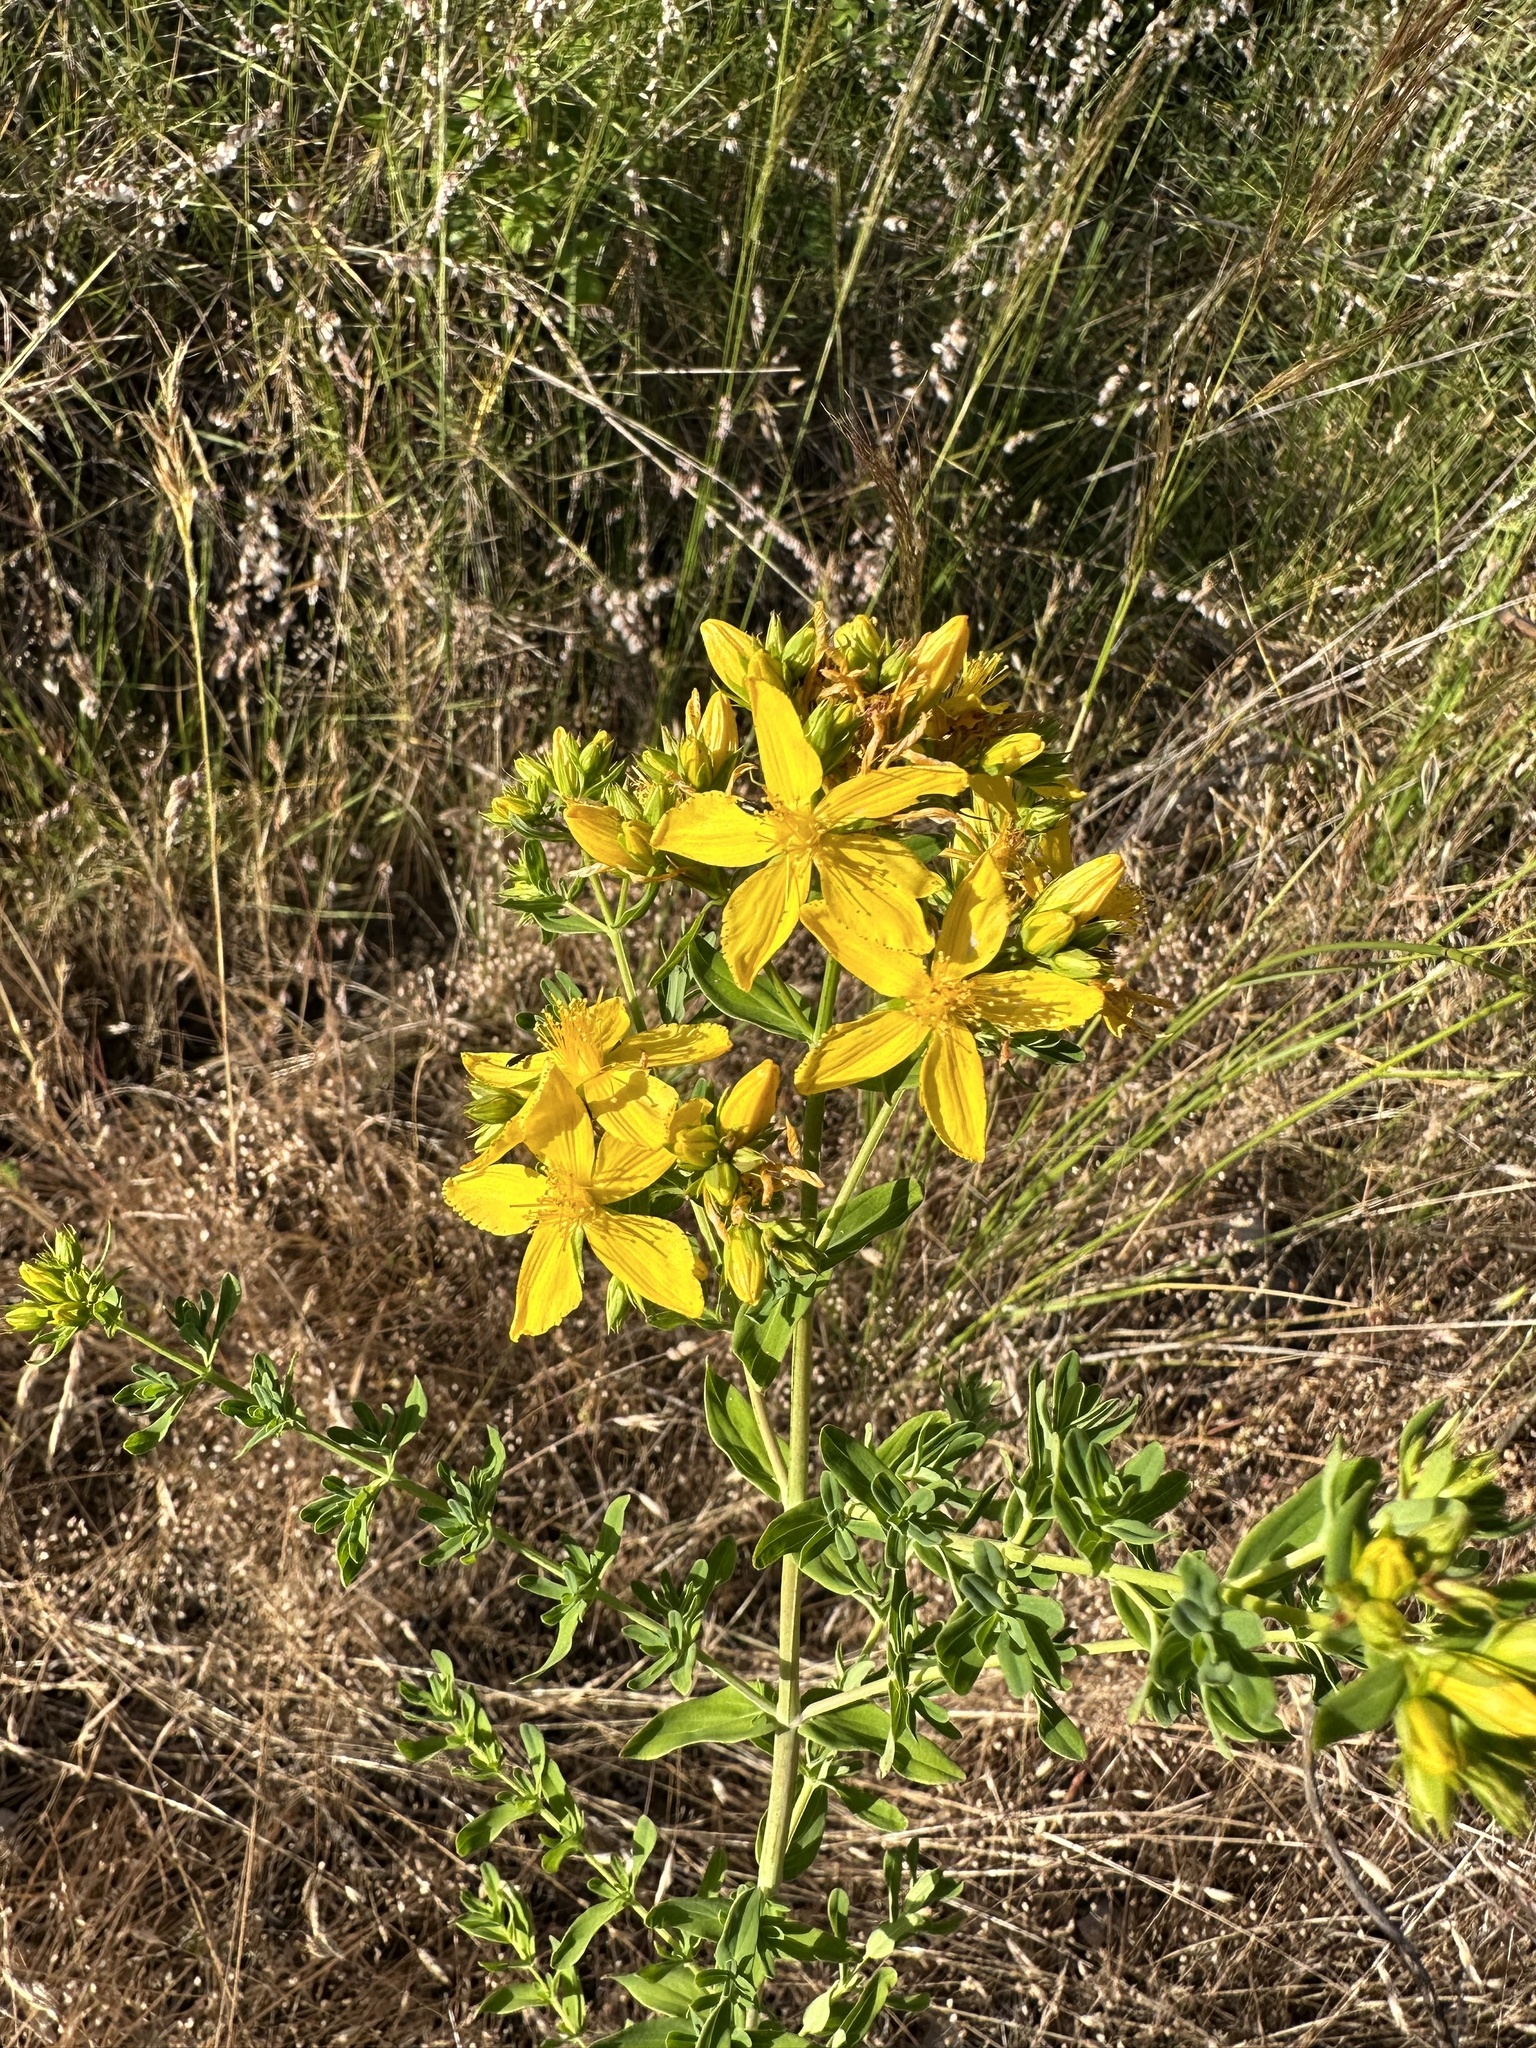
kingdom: Plantae
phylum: Tracheophyta
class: Magnoliopsida
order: Malpighiales
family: Hypericaceae
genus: Hypericum
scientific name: Hypericum perforatum
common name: Common st. johnswort
